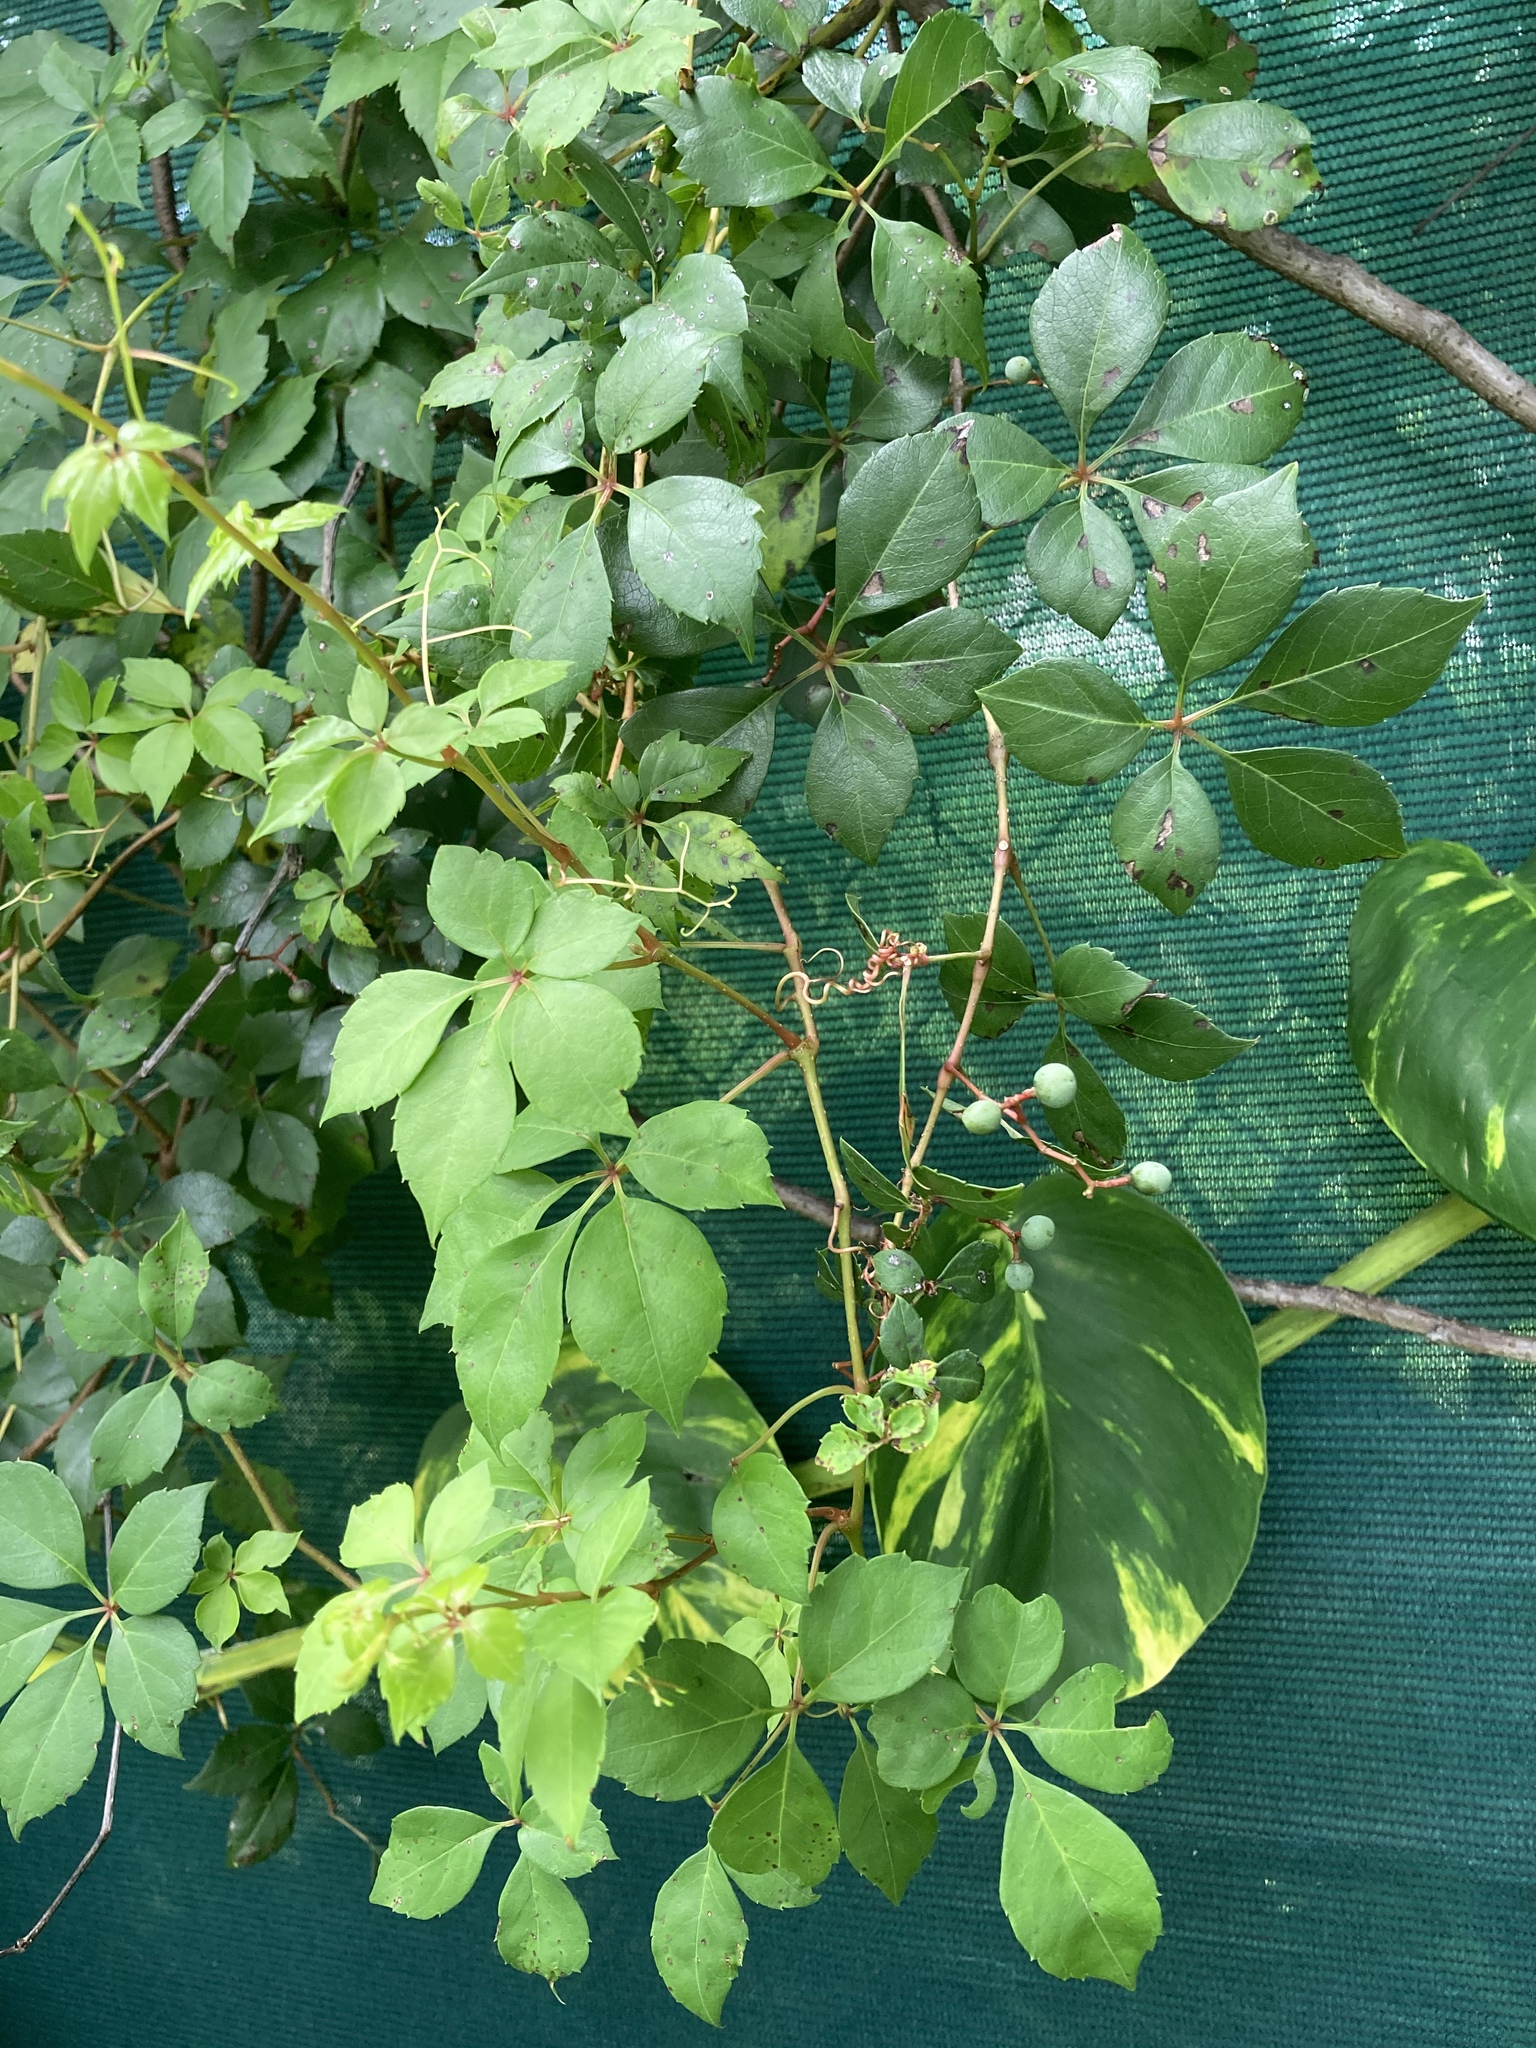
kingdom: Plantae
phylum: Tracheophyta
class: Magnoliopsida
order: Vitales
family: Vitaceae
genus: Parthenocissus
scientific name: Parthenocissus quinquefolia
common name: Virginia-creeper
